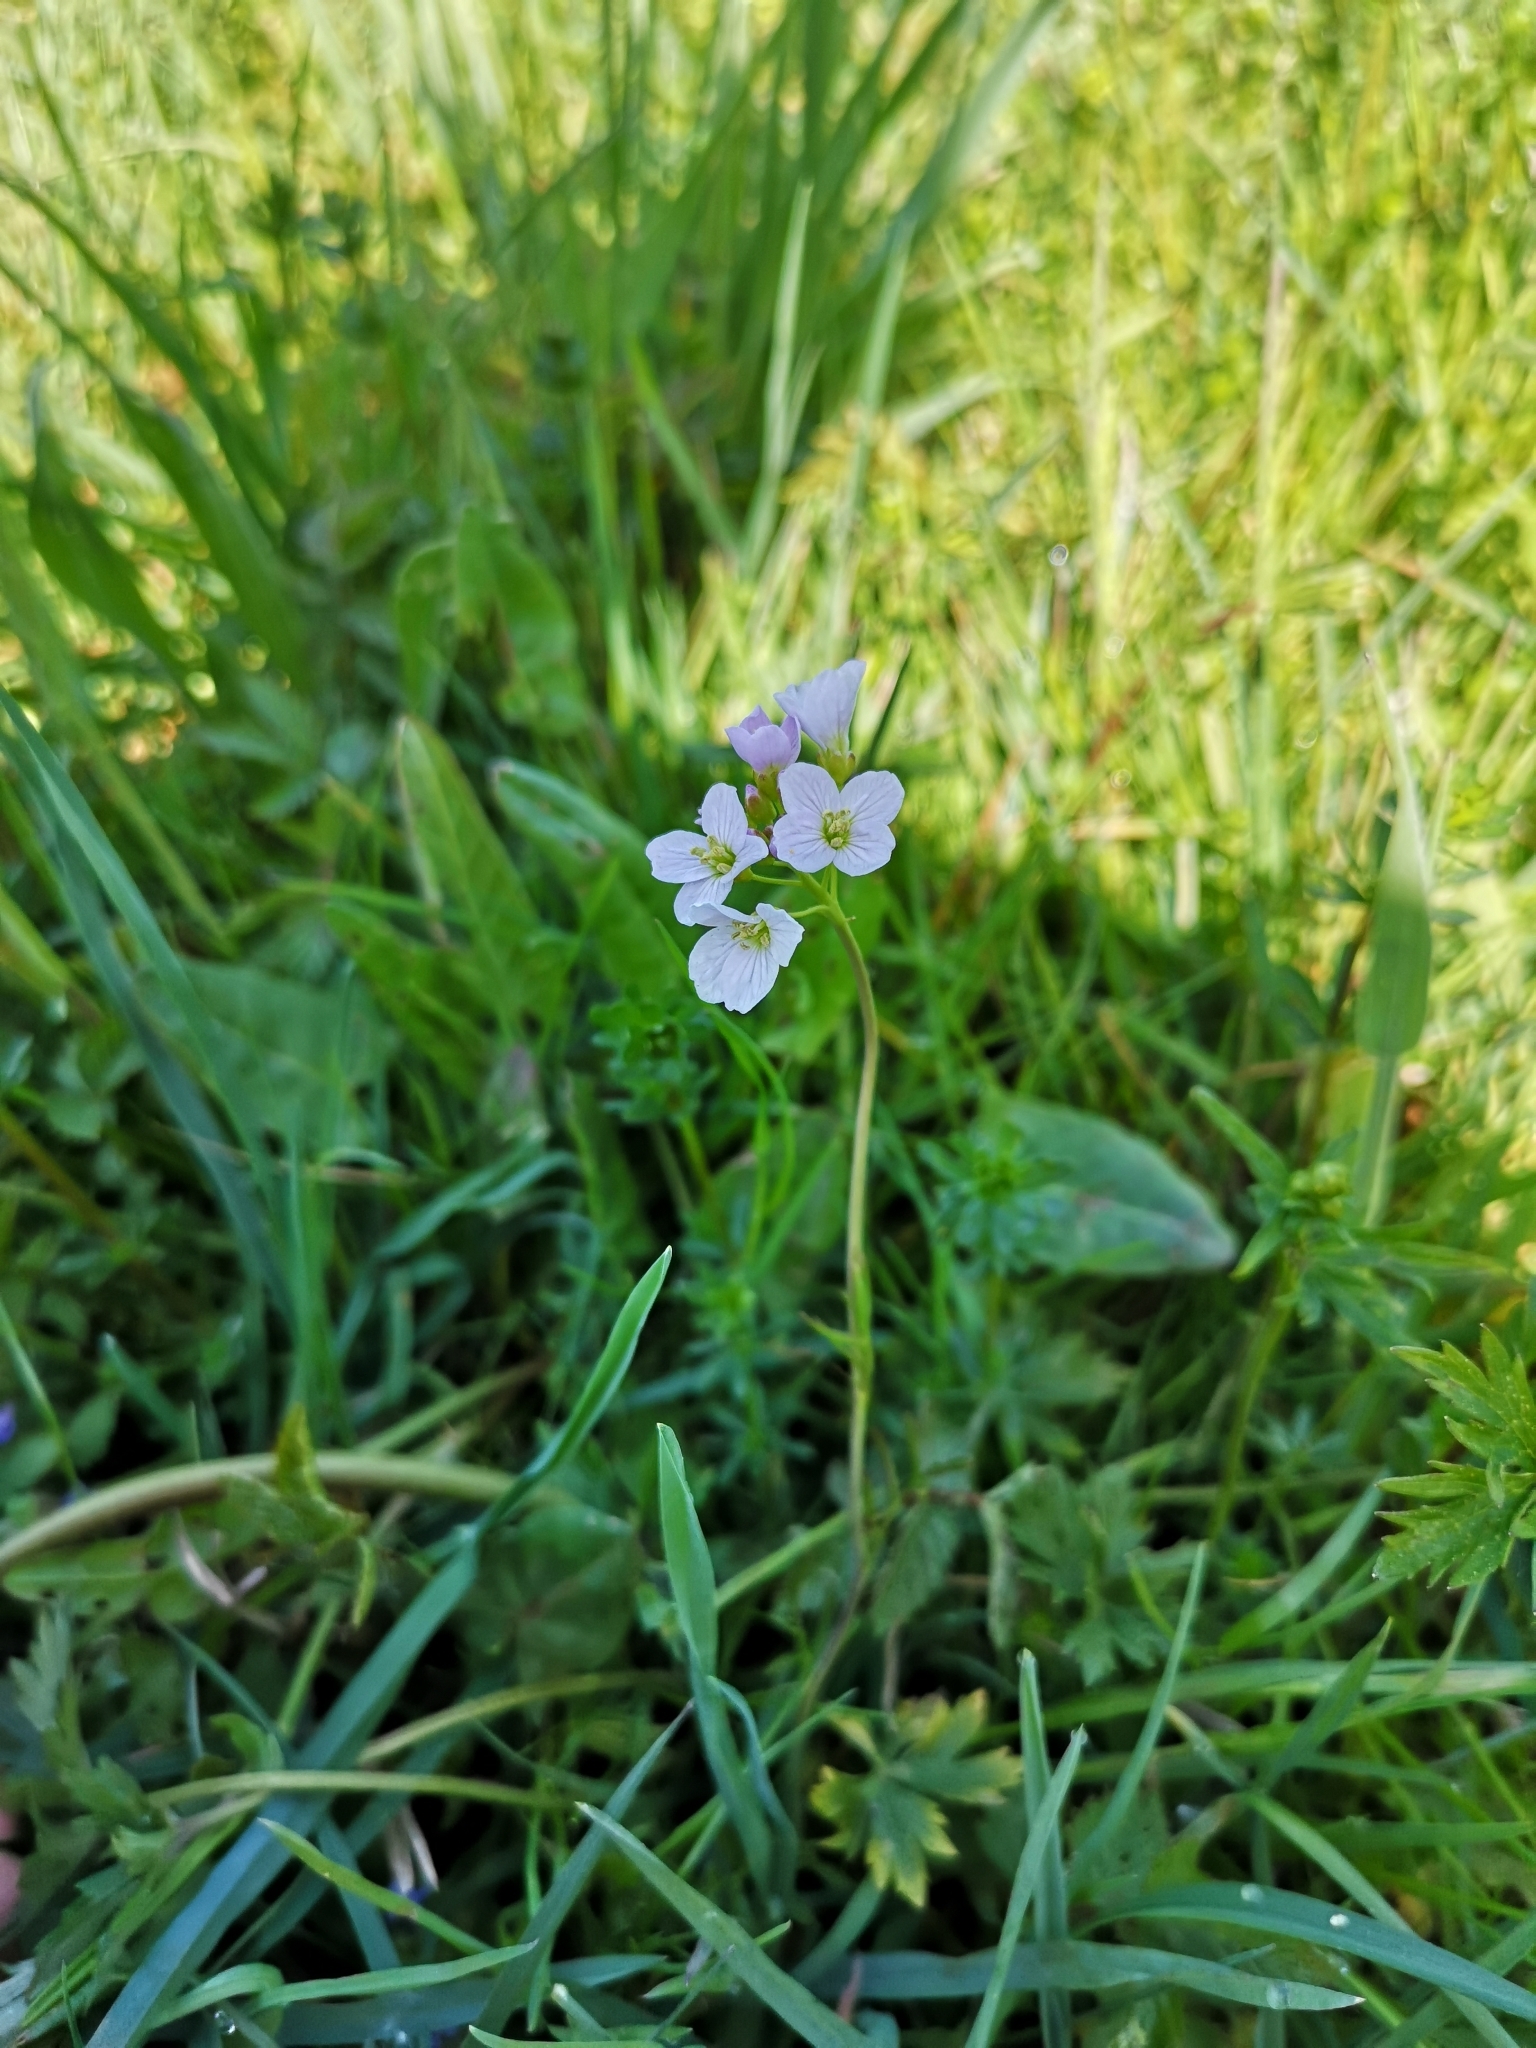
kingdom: Plantae
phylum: Tracheophyta
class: Magnoliopsida
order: Brassicales
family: Brassicaceae
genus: Cardamine
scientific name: Cardamine pratensis
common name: Cuckoo flower
